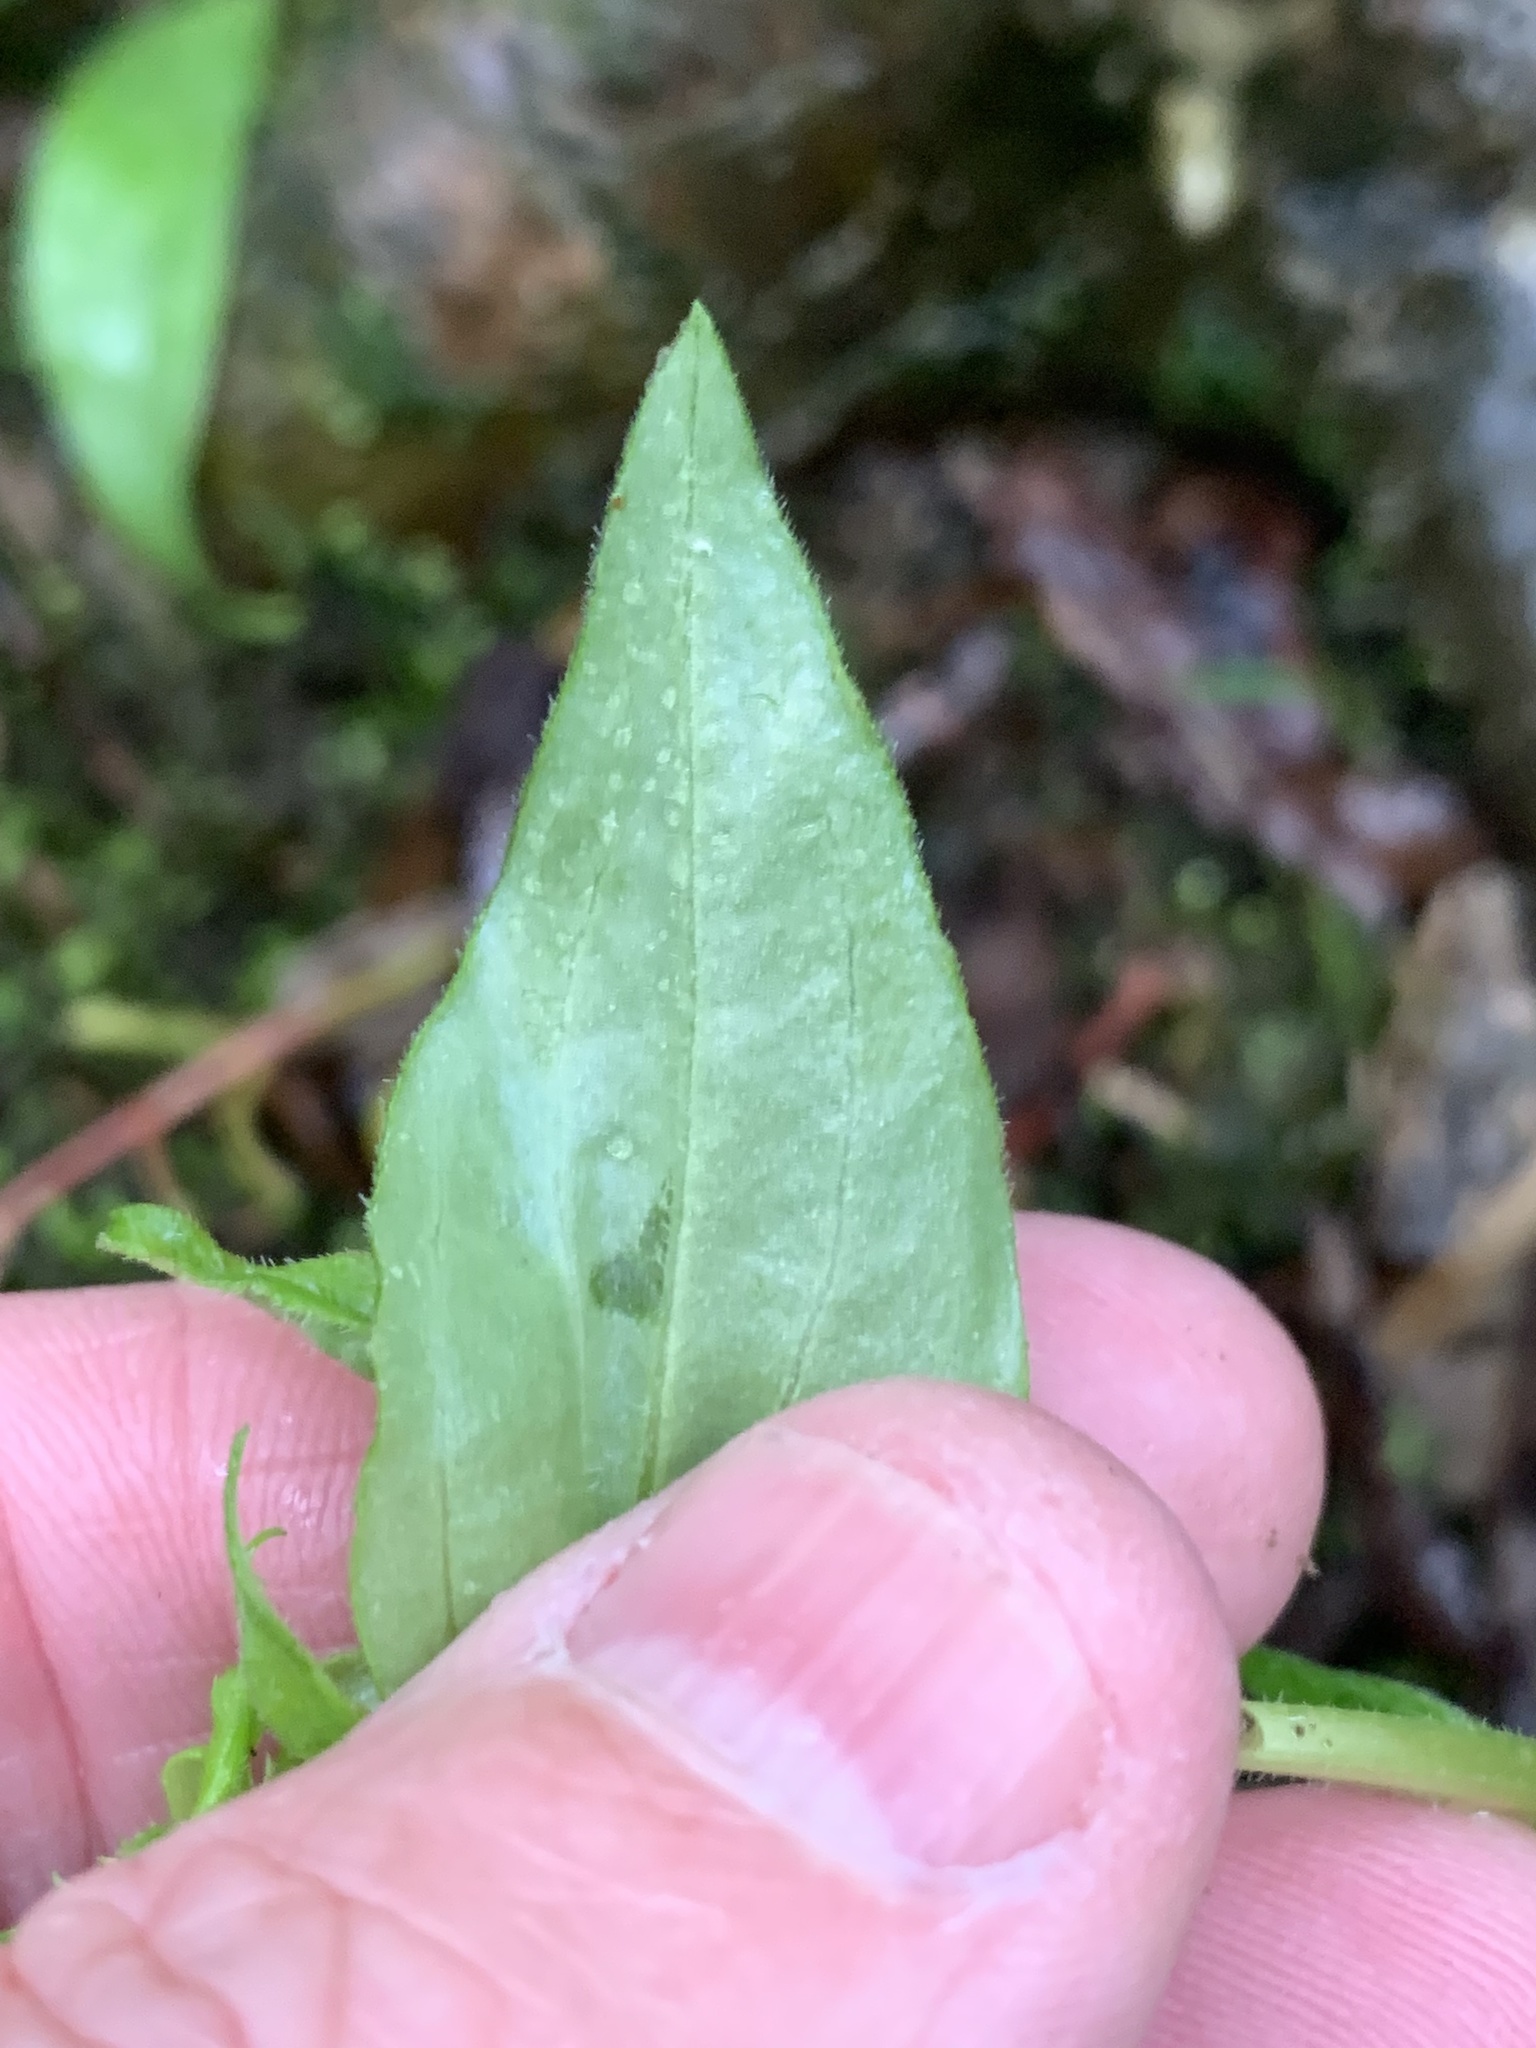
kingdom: Plantae
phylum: Tracheophyta
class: Magnoliopsida
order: Gentianales
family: Rubiaceae
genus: Houstonia
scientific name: Houstonia purpurea
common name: Summer bluet
